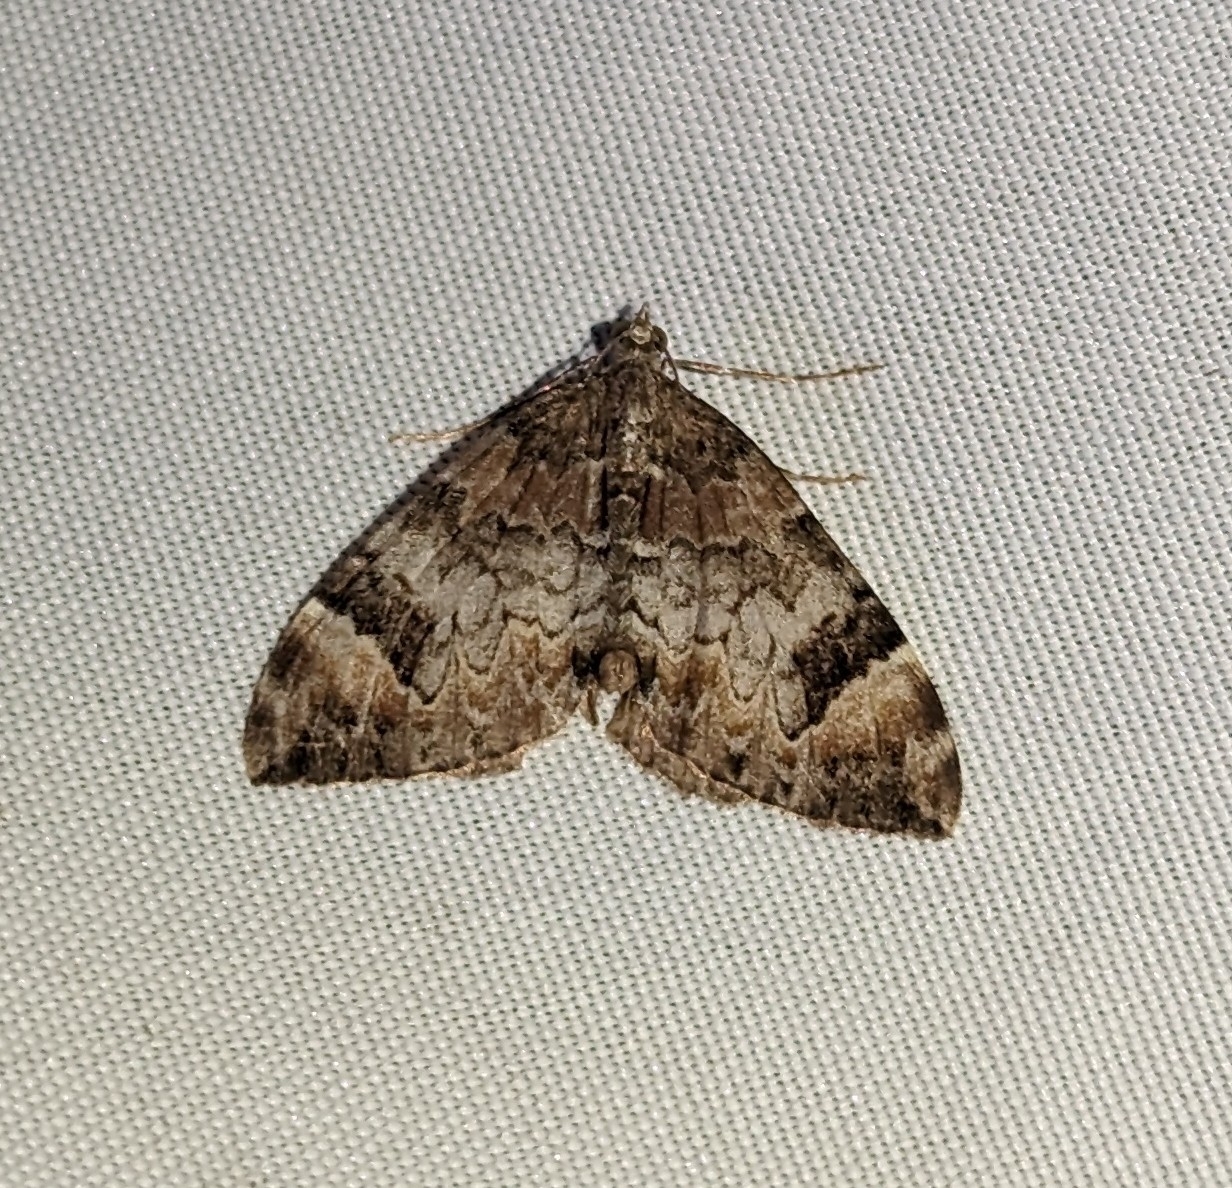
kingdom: Animalia
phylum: Arthropoda
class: Insecta
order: Lepidoptera
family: Geometridae
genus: Dysstroma
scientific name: Dysstroma citrata
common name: Dark marbled carpet
